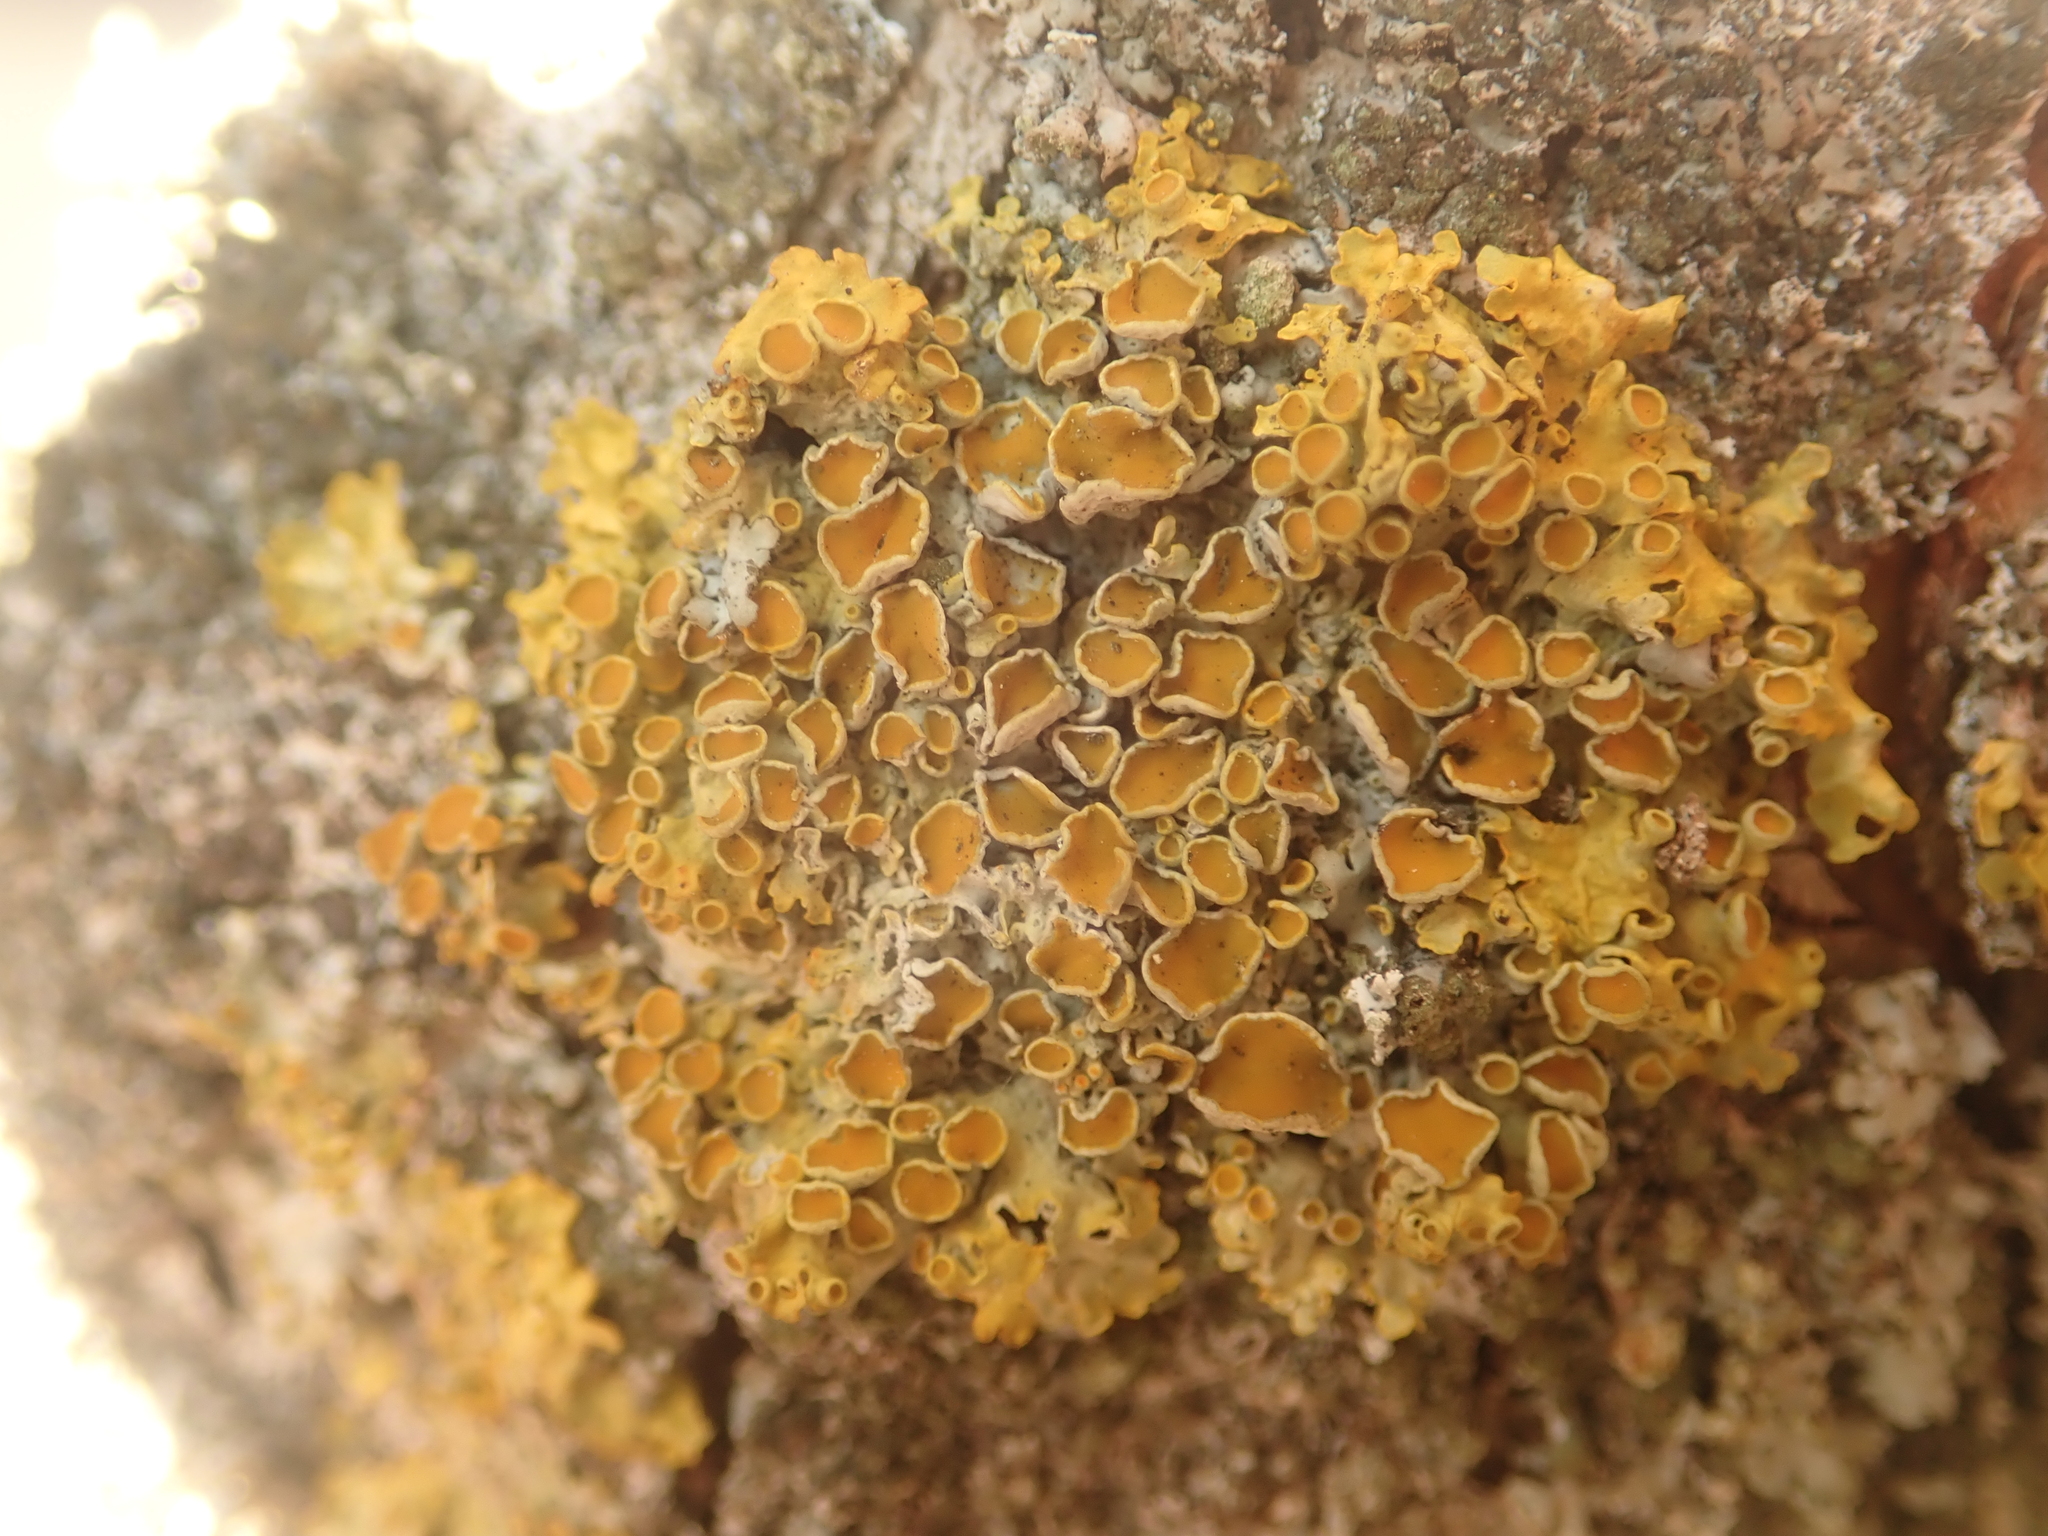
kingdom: Fungi
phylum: Ascomycota
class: Lecanoromycetes
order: Teloschistales
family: Teloschistaceae
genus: Xanthoria
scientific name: Xanthoria parietina
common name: Common orange lichen
